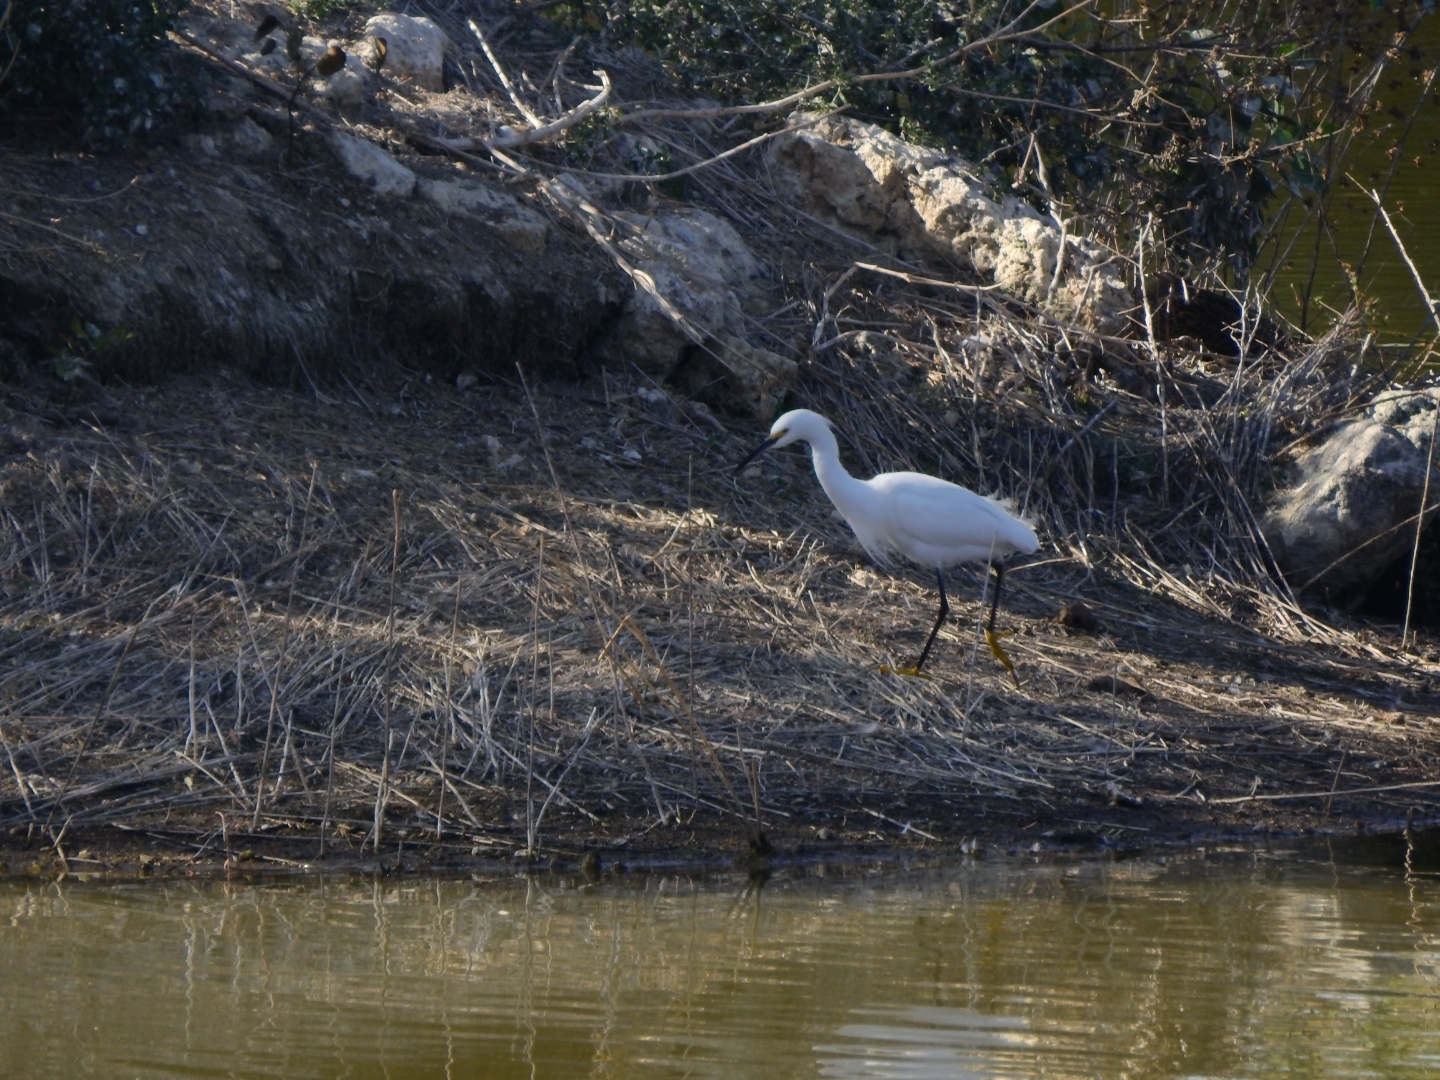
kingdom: Animalia
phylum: Chordata
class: Aves
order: Pelecaniformes
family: Ardeidae
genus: Egretta
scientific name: Egretta thula
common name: Snowy egret
